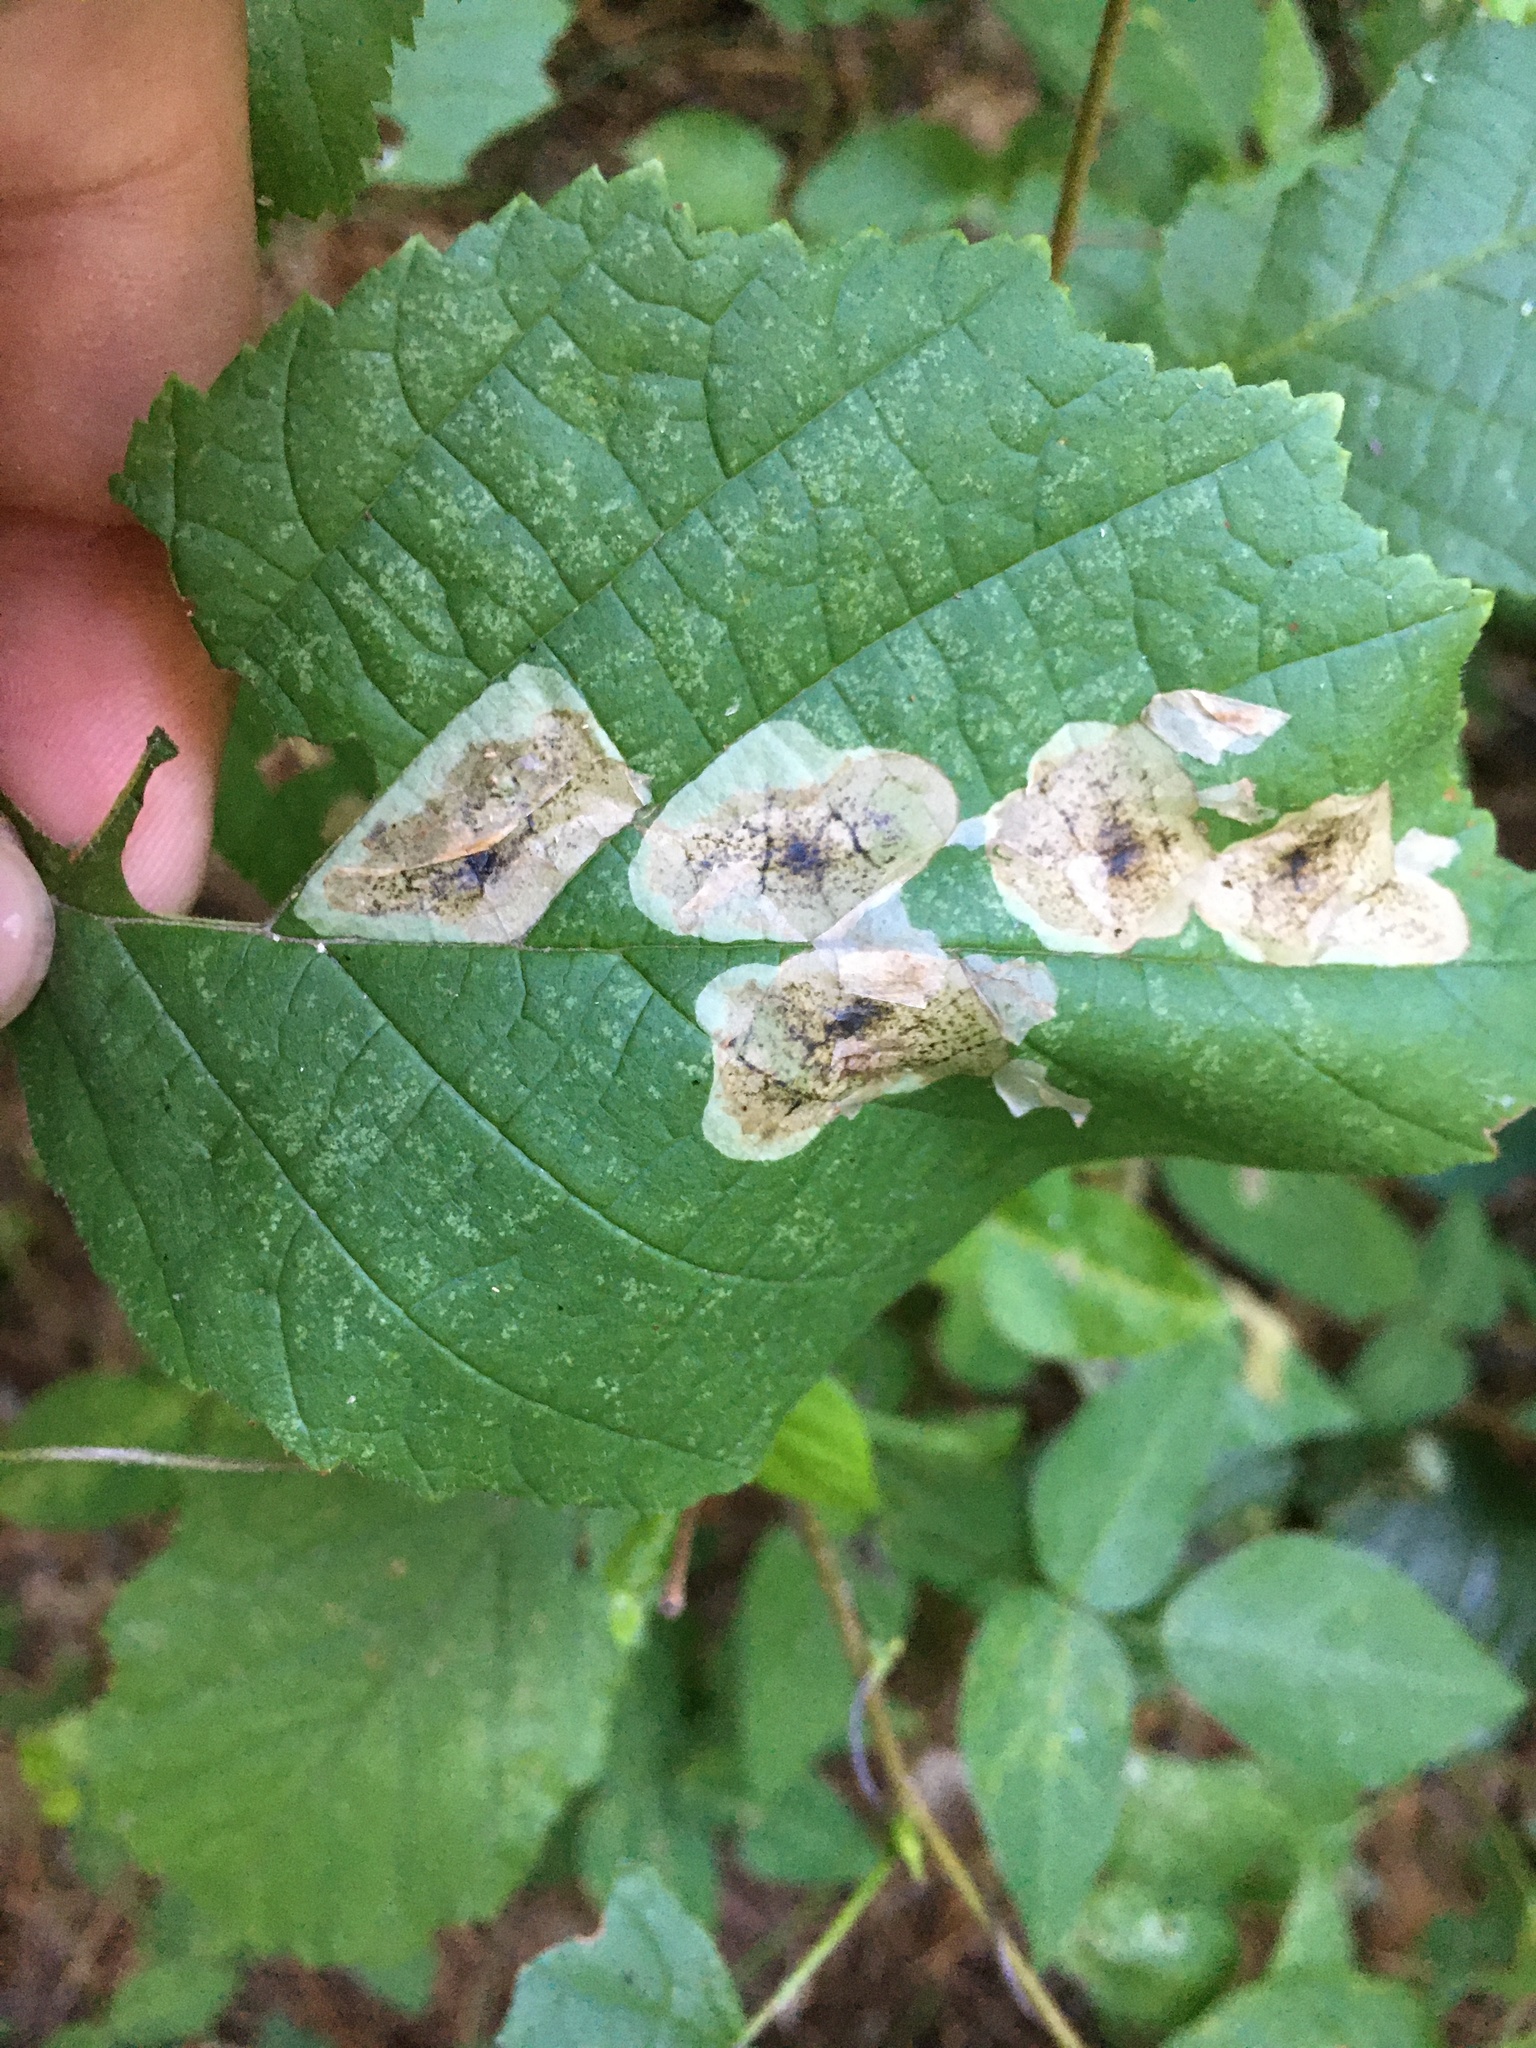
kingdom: Animalia
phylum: Arthropoda
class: Insecta
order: Lepidoptera
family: Gracillariidae
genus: Cameraria
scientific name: Cameraria corylisella
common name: Hazel blotchminer
